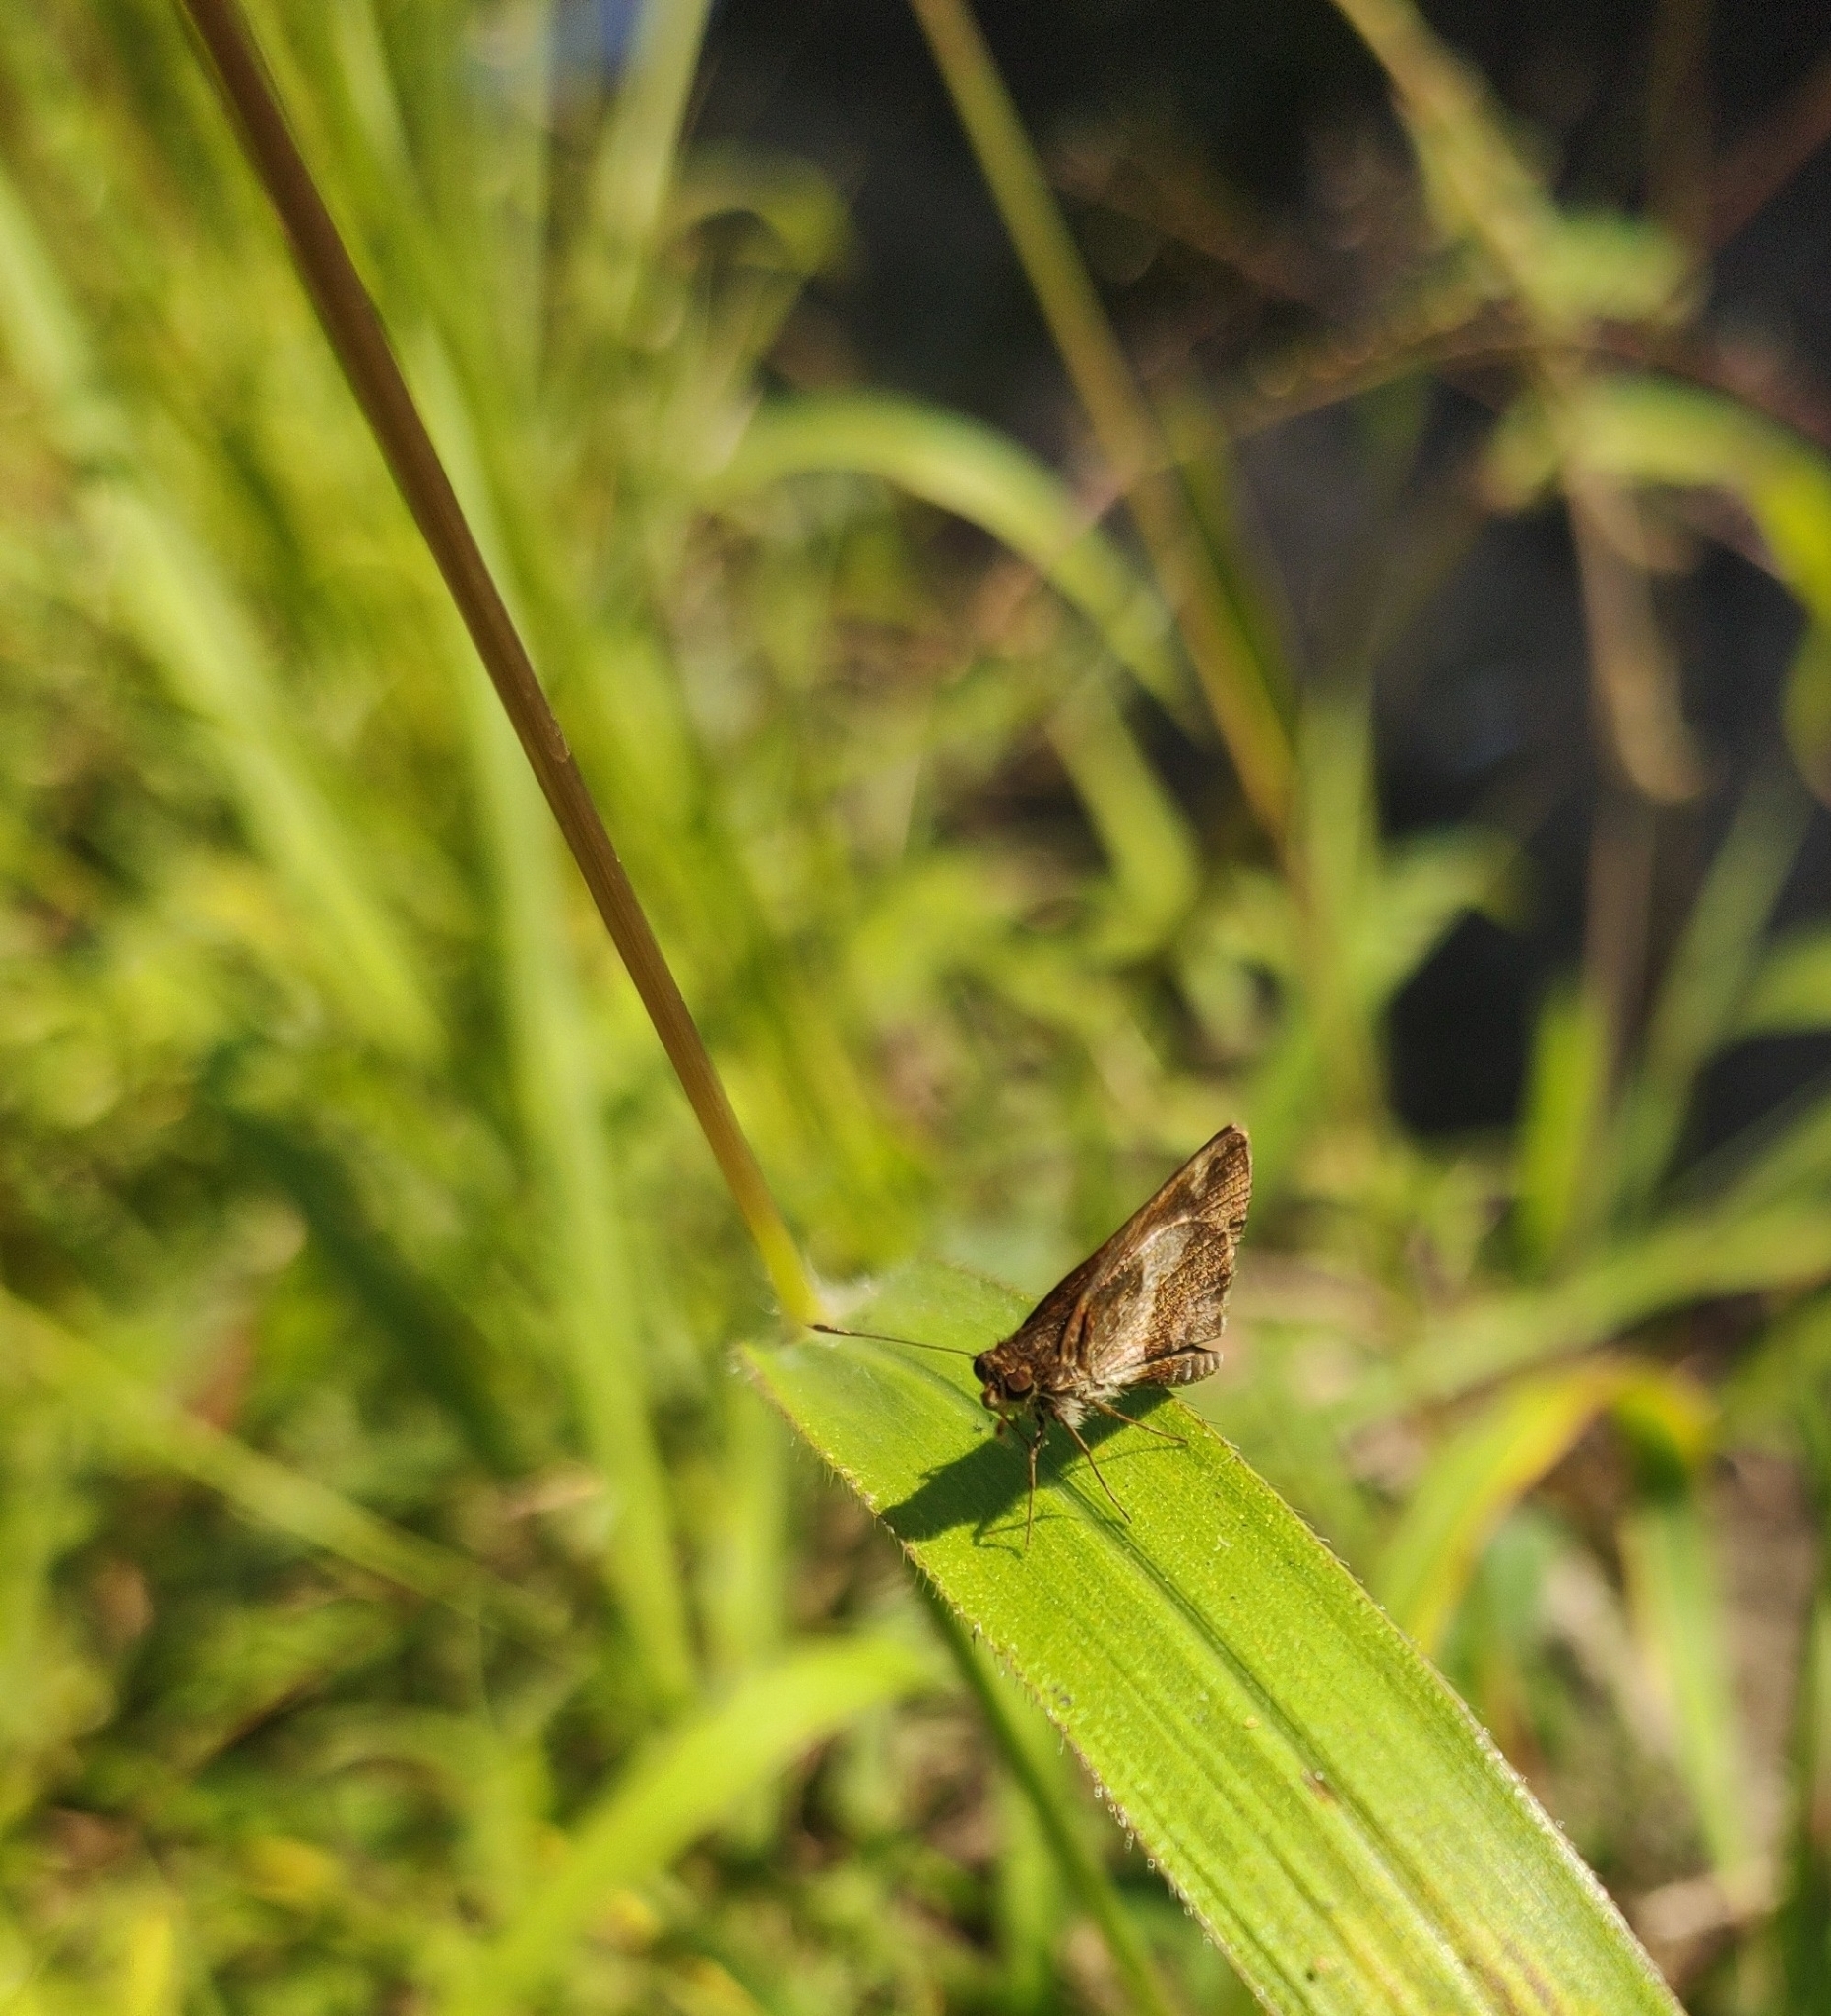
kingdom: Animalia
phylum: Arthropoda
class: Insecta
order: Lepidoptera
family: Hesperiidae
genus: Callimormus
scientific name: Callimormus
